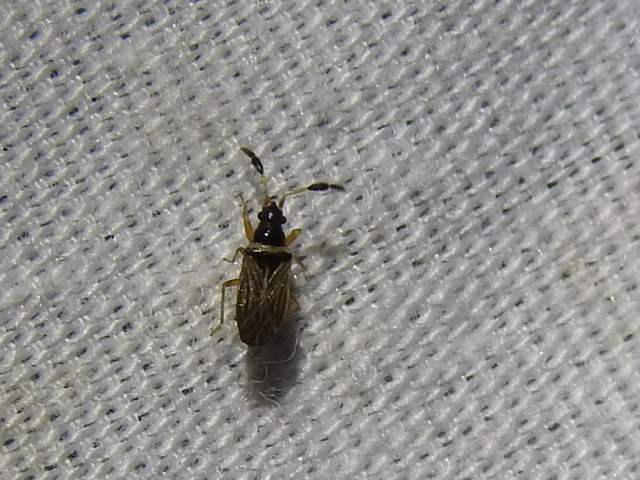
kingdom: Animalia
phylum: Arthropoda
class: Insecta
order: Hemiptera
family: Rhyparochromidae
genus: Ptochiomera
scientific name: Ptochiomera nodosa
